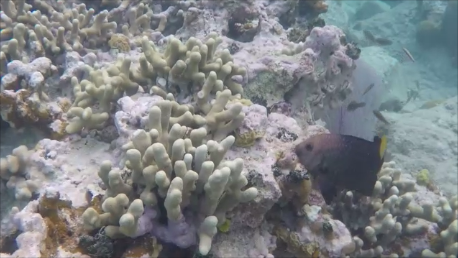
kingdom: Animalia
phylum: Chordata
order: Perciformes
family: Pomacentridae
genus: Microspathodon
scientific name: Microspathodon chrysurus
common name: Yellowtail damselfish
